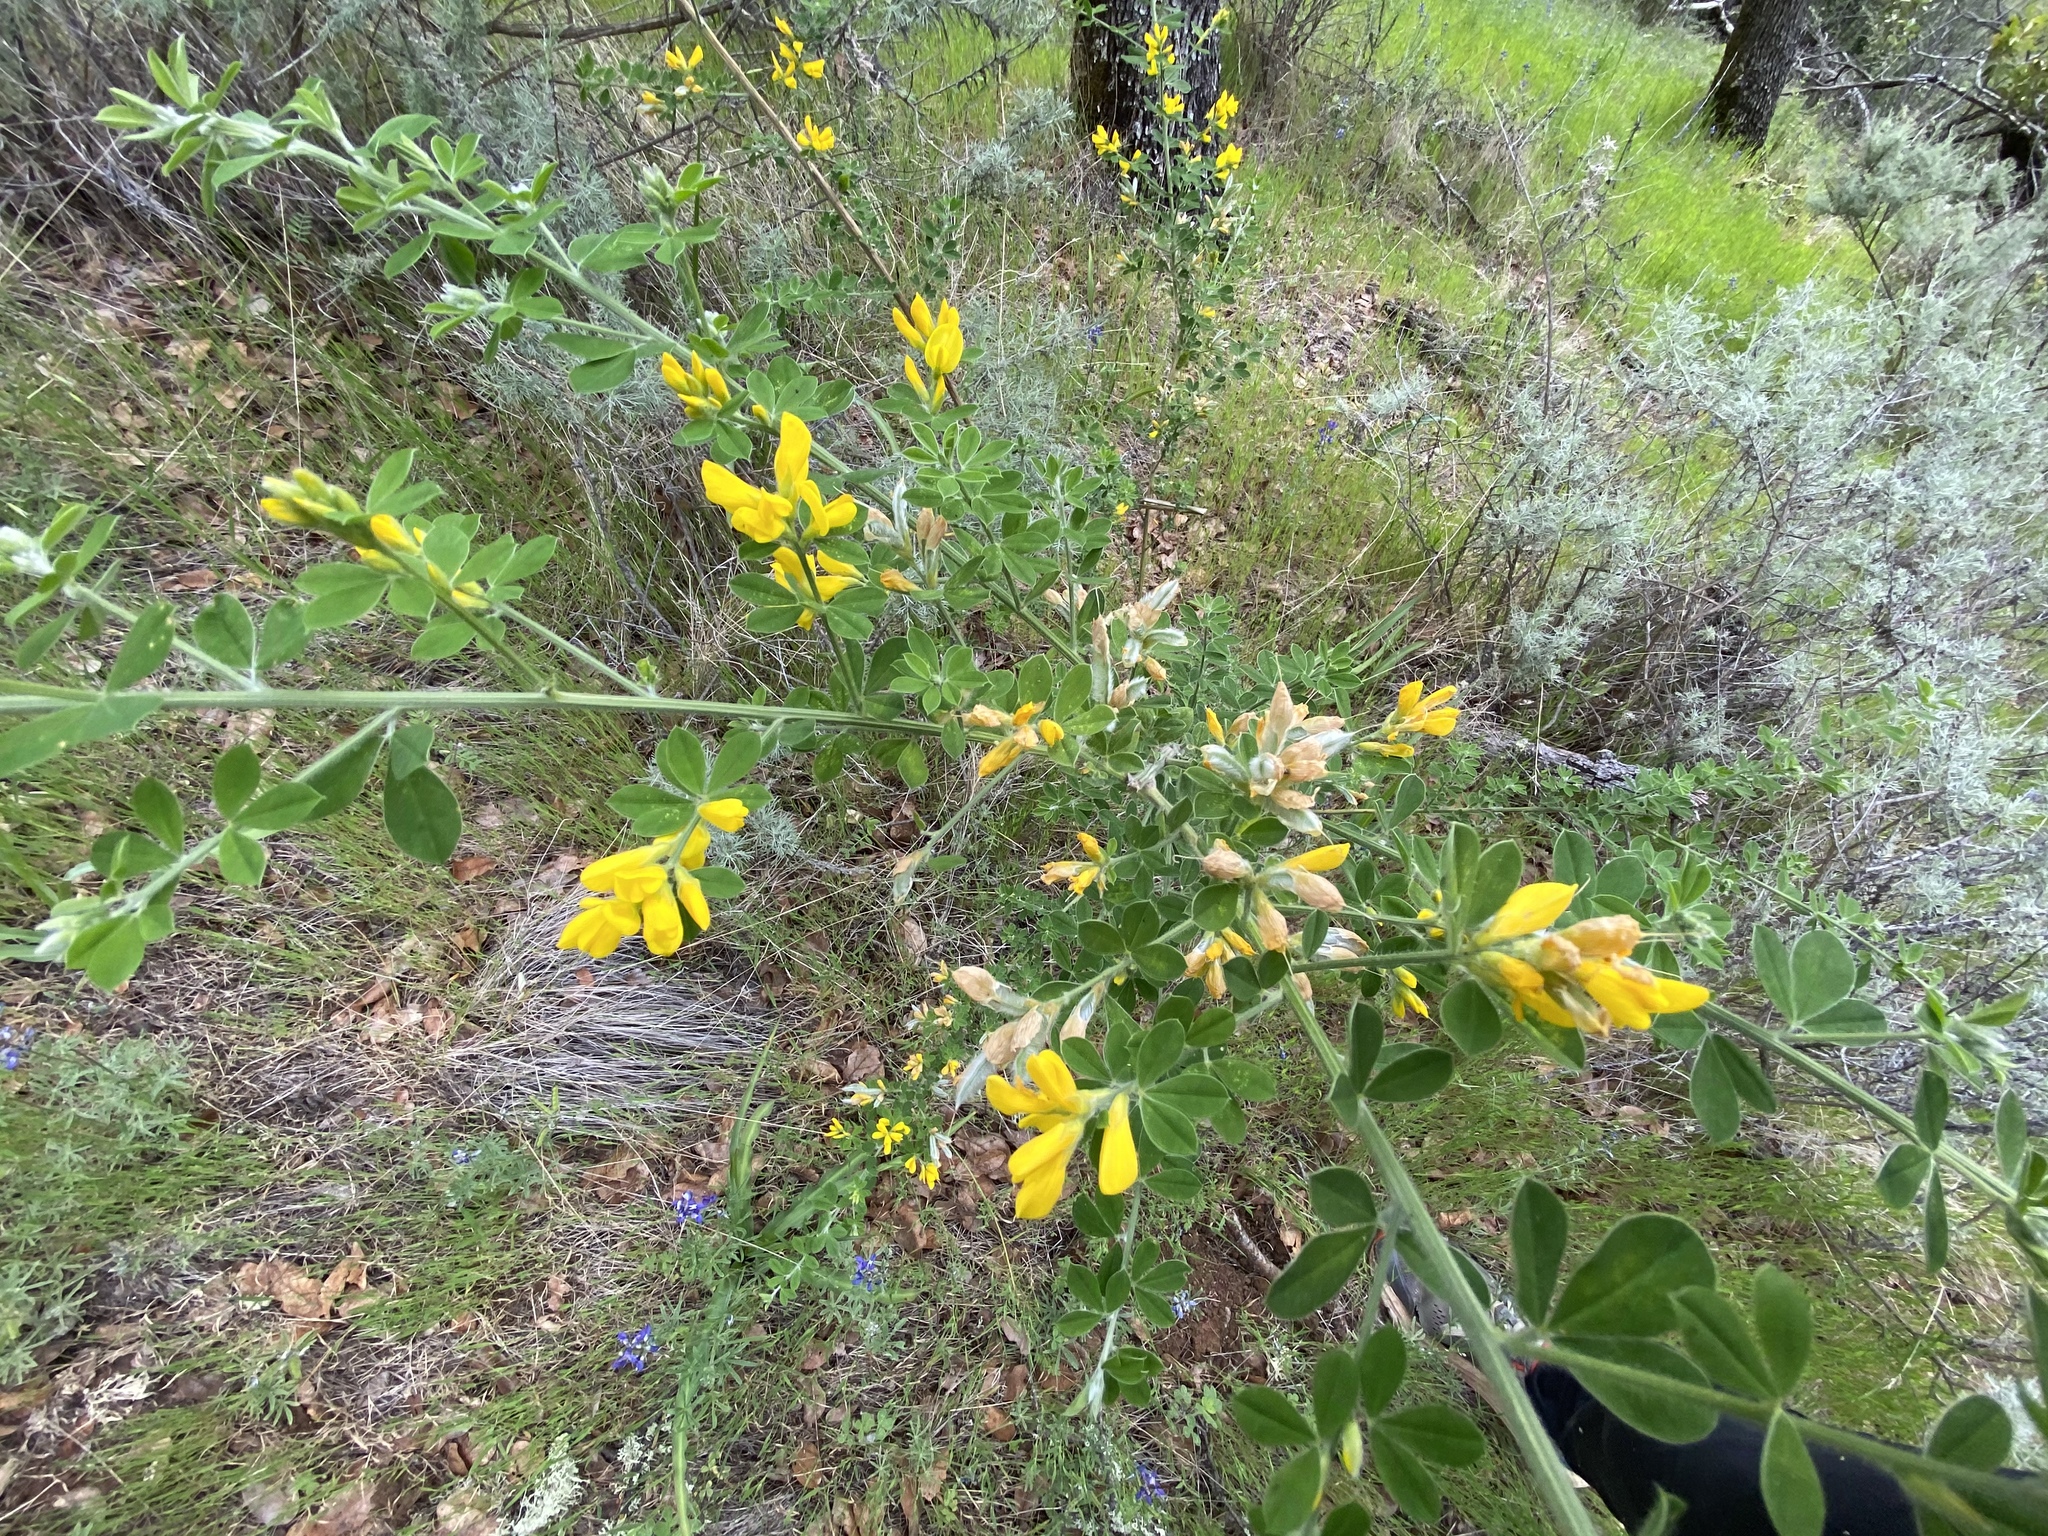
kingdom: Plantae
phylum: Tracheophyta
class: Magnoliopsida
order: Fabales
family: Fabaceae
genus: Genista
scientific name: Genista monspessulana
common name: Montpellier broom
